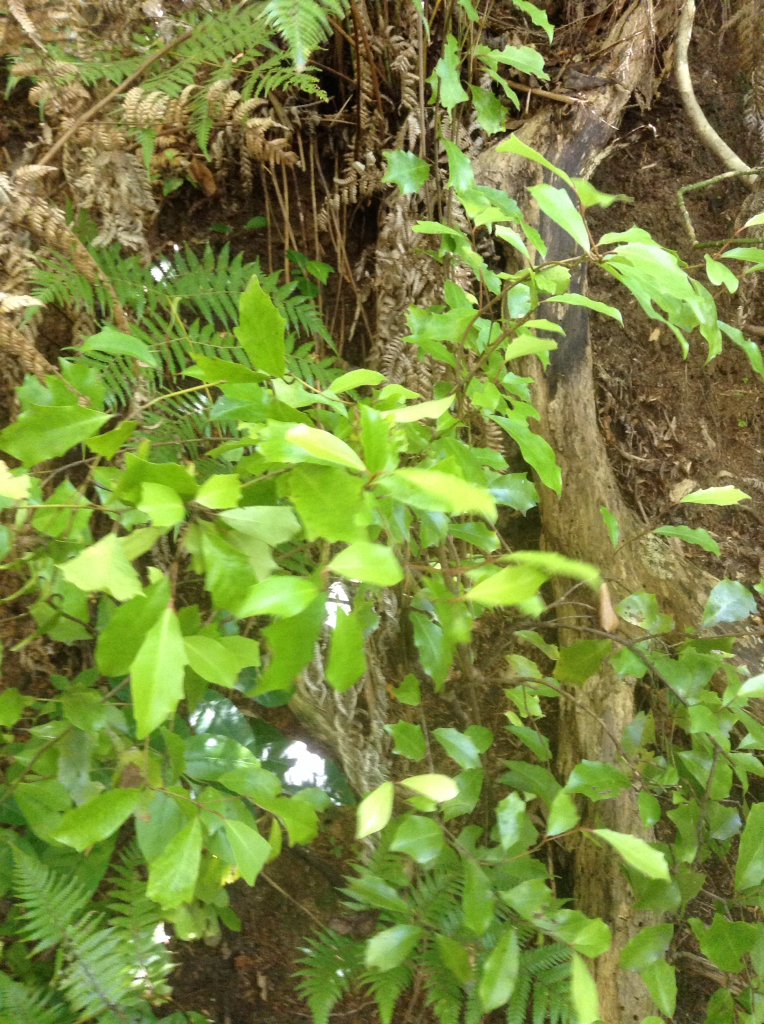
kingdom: Plantae
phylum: Tracheophyta
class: Magnoliopsida
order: Asterales
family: Alseuosmiaceae
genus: Alseuosmia
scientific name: Alseuosmia quercifolia
